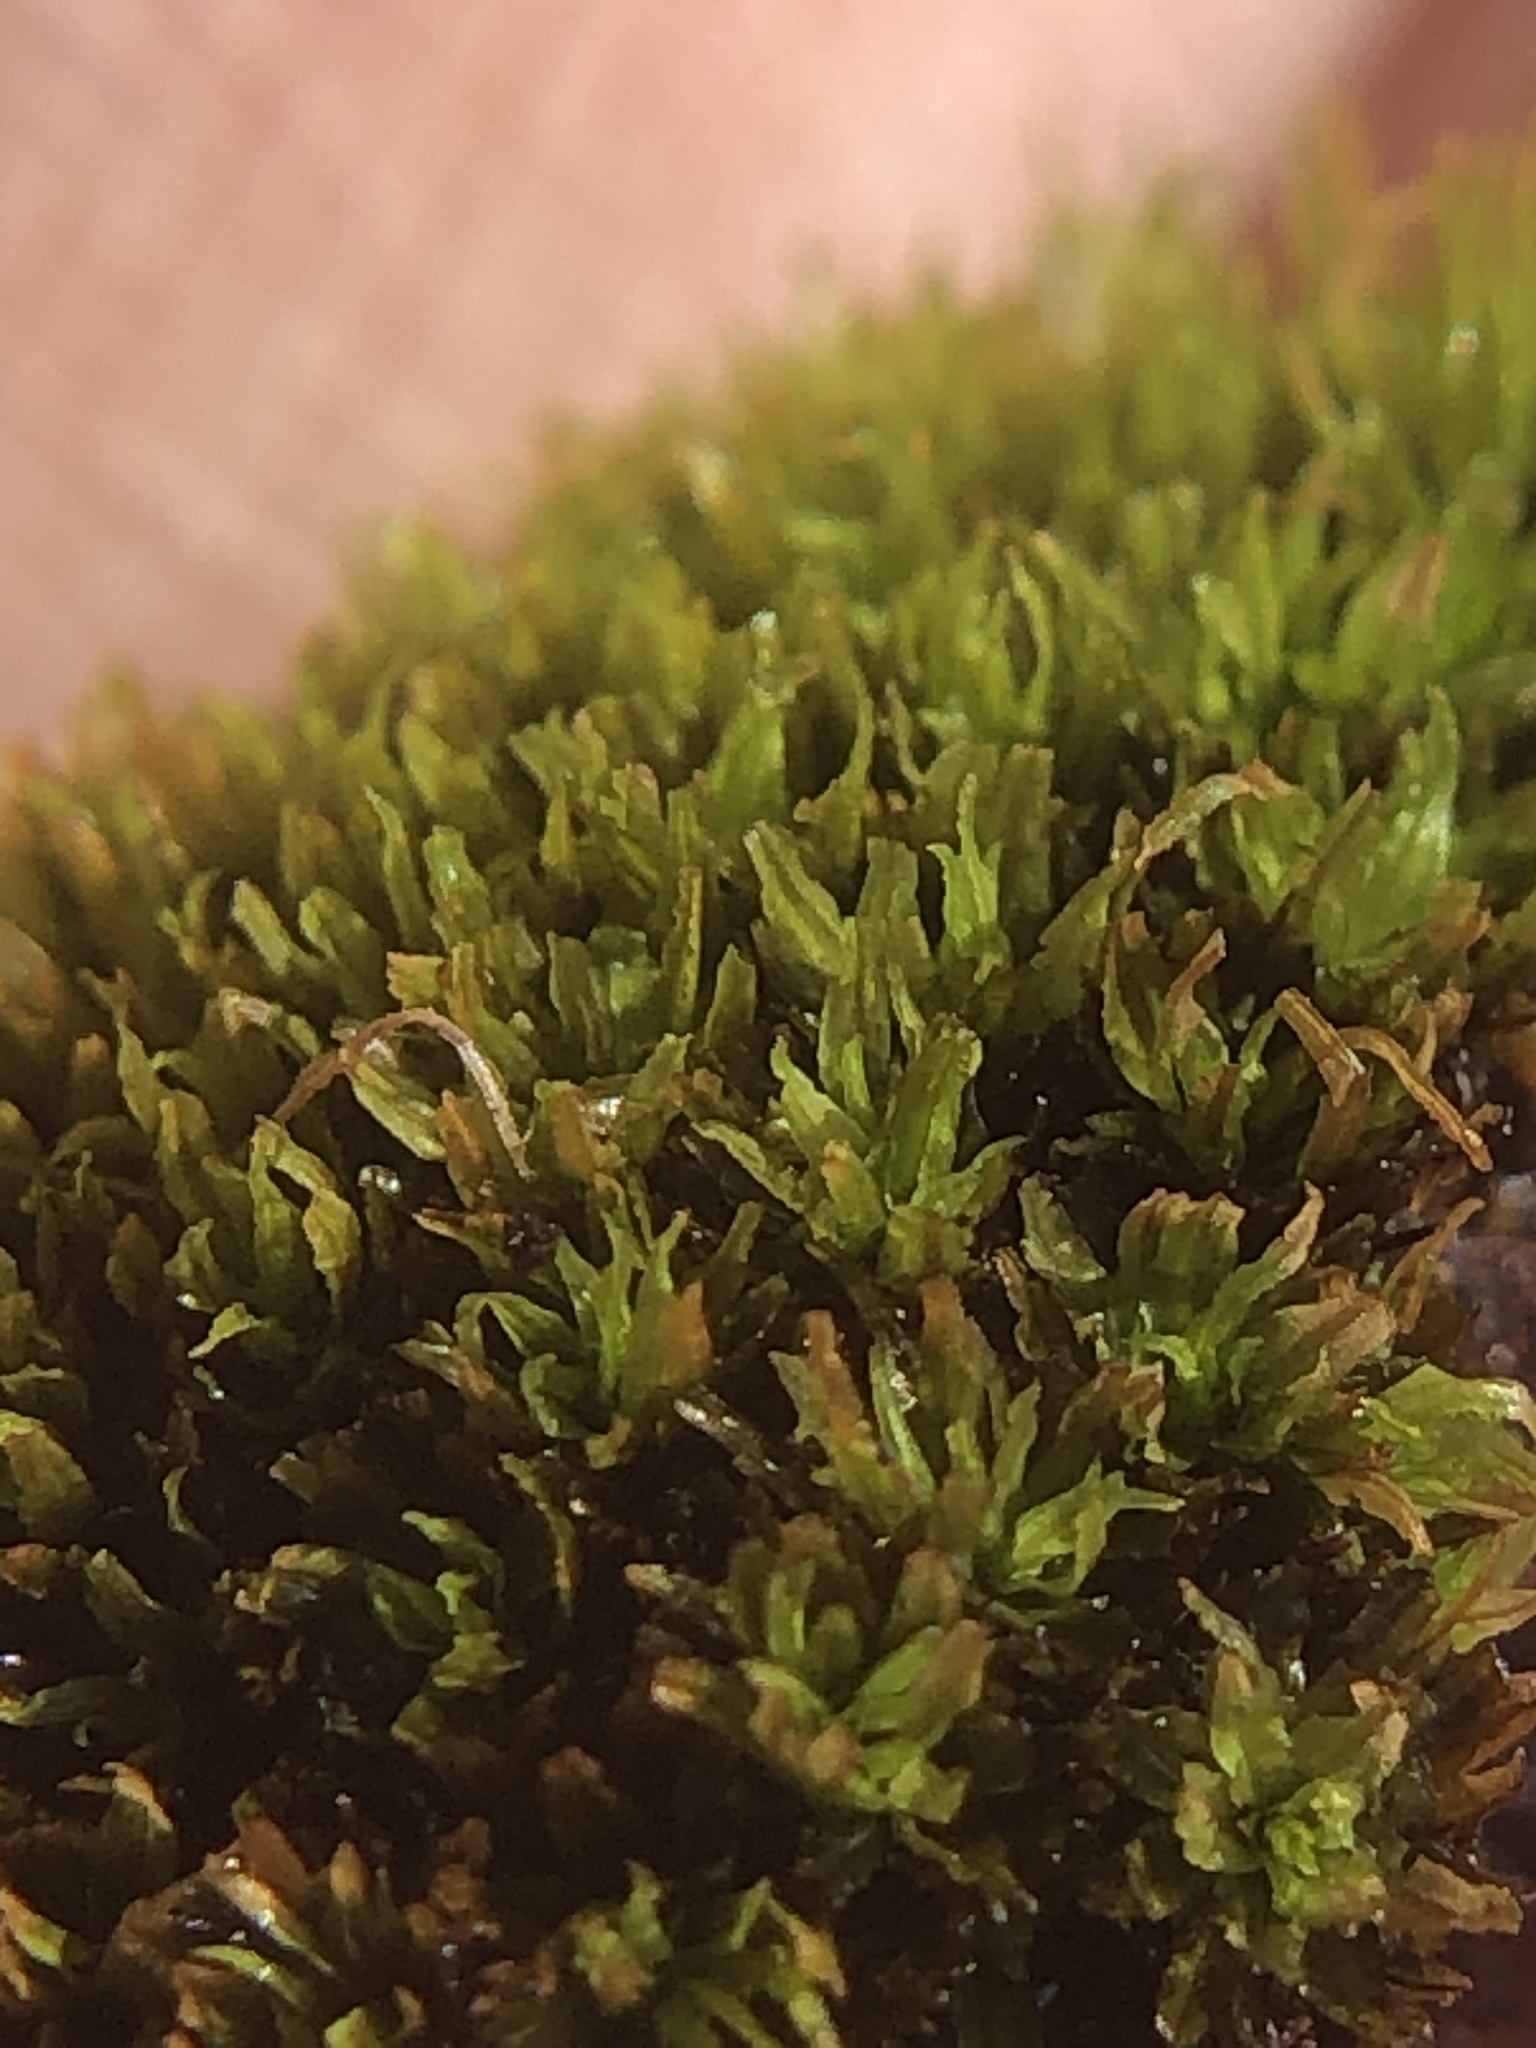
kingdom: Plantae
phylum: Bryophyta
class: Bryopsida
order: Pottiales
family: Pottiaceae
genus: Tortella
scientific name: Tortella nitida
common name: Neat crisp-moss
